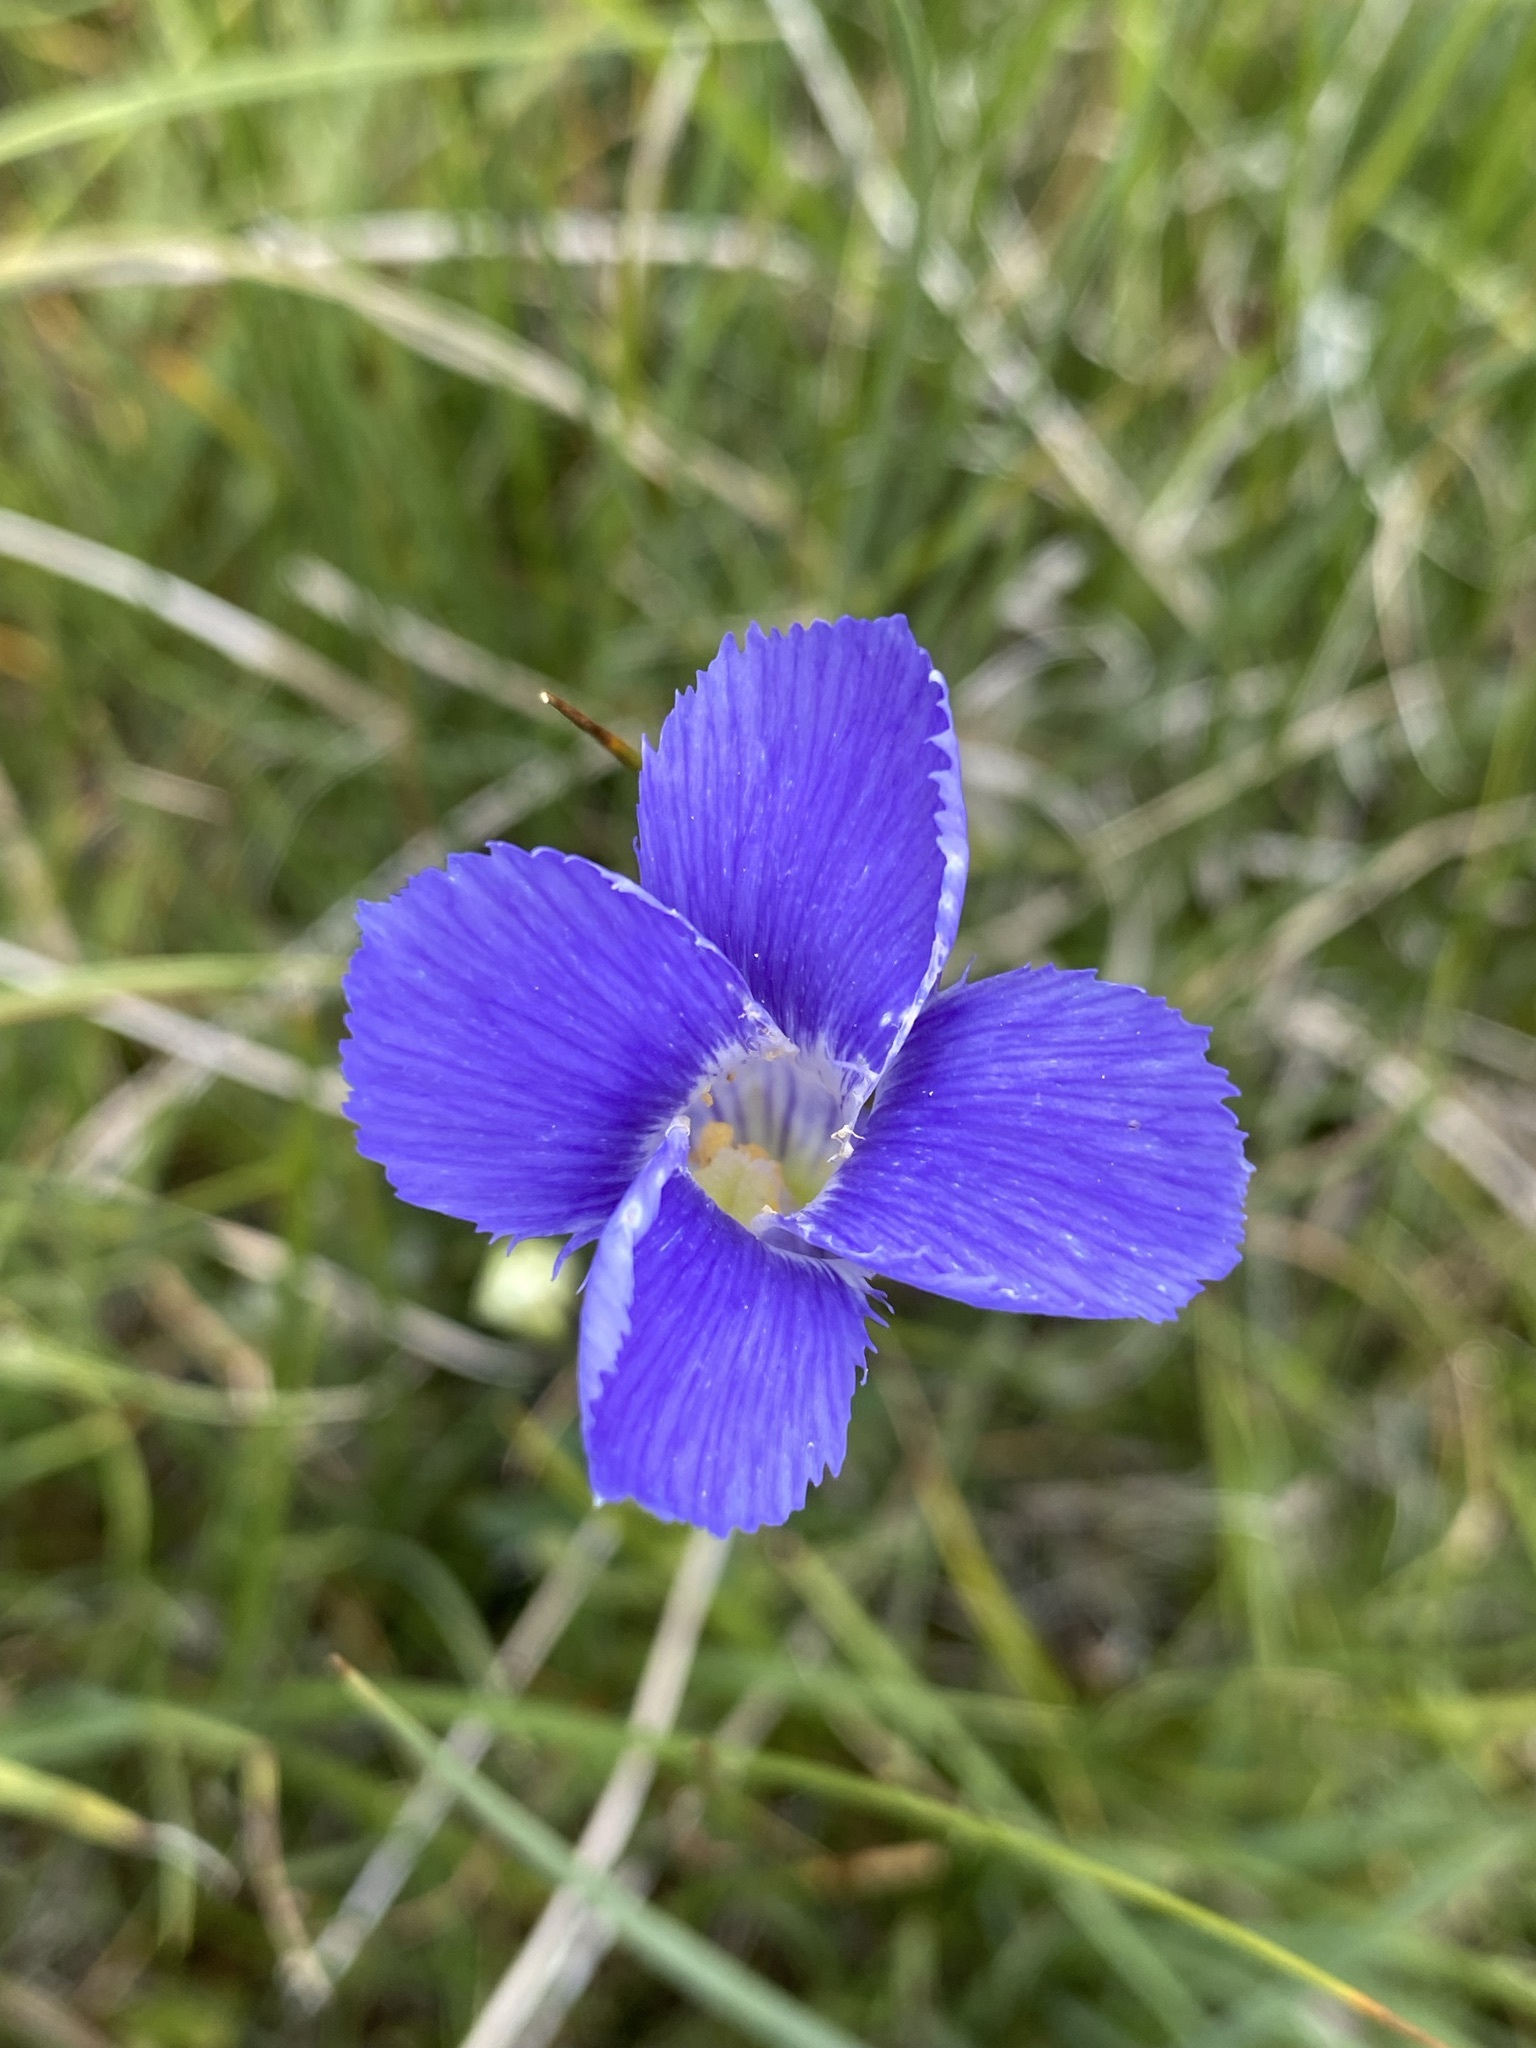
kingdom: Plantae
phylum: Tracheophyta
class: Magnoliopsida
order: Gentianales
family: Gentianaceae
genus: Gentianopsis
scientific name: Gentianopsis thermalis
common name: Rocky mountain fringed-gentian
